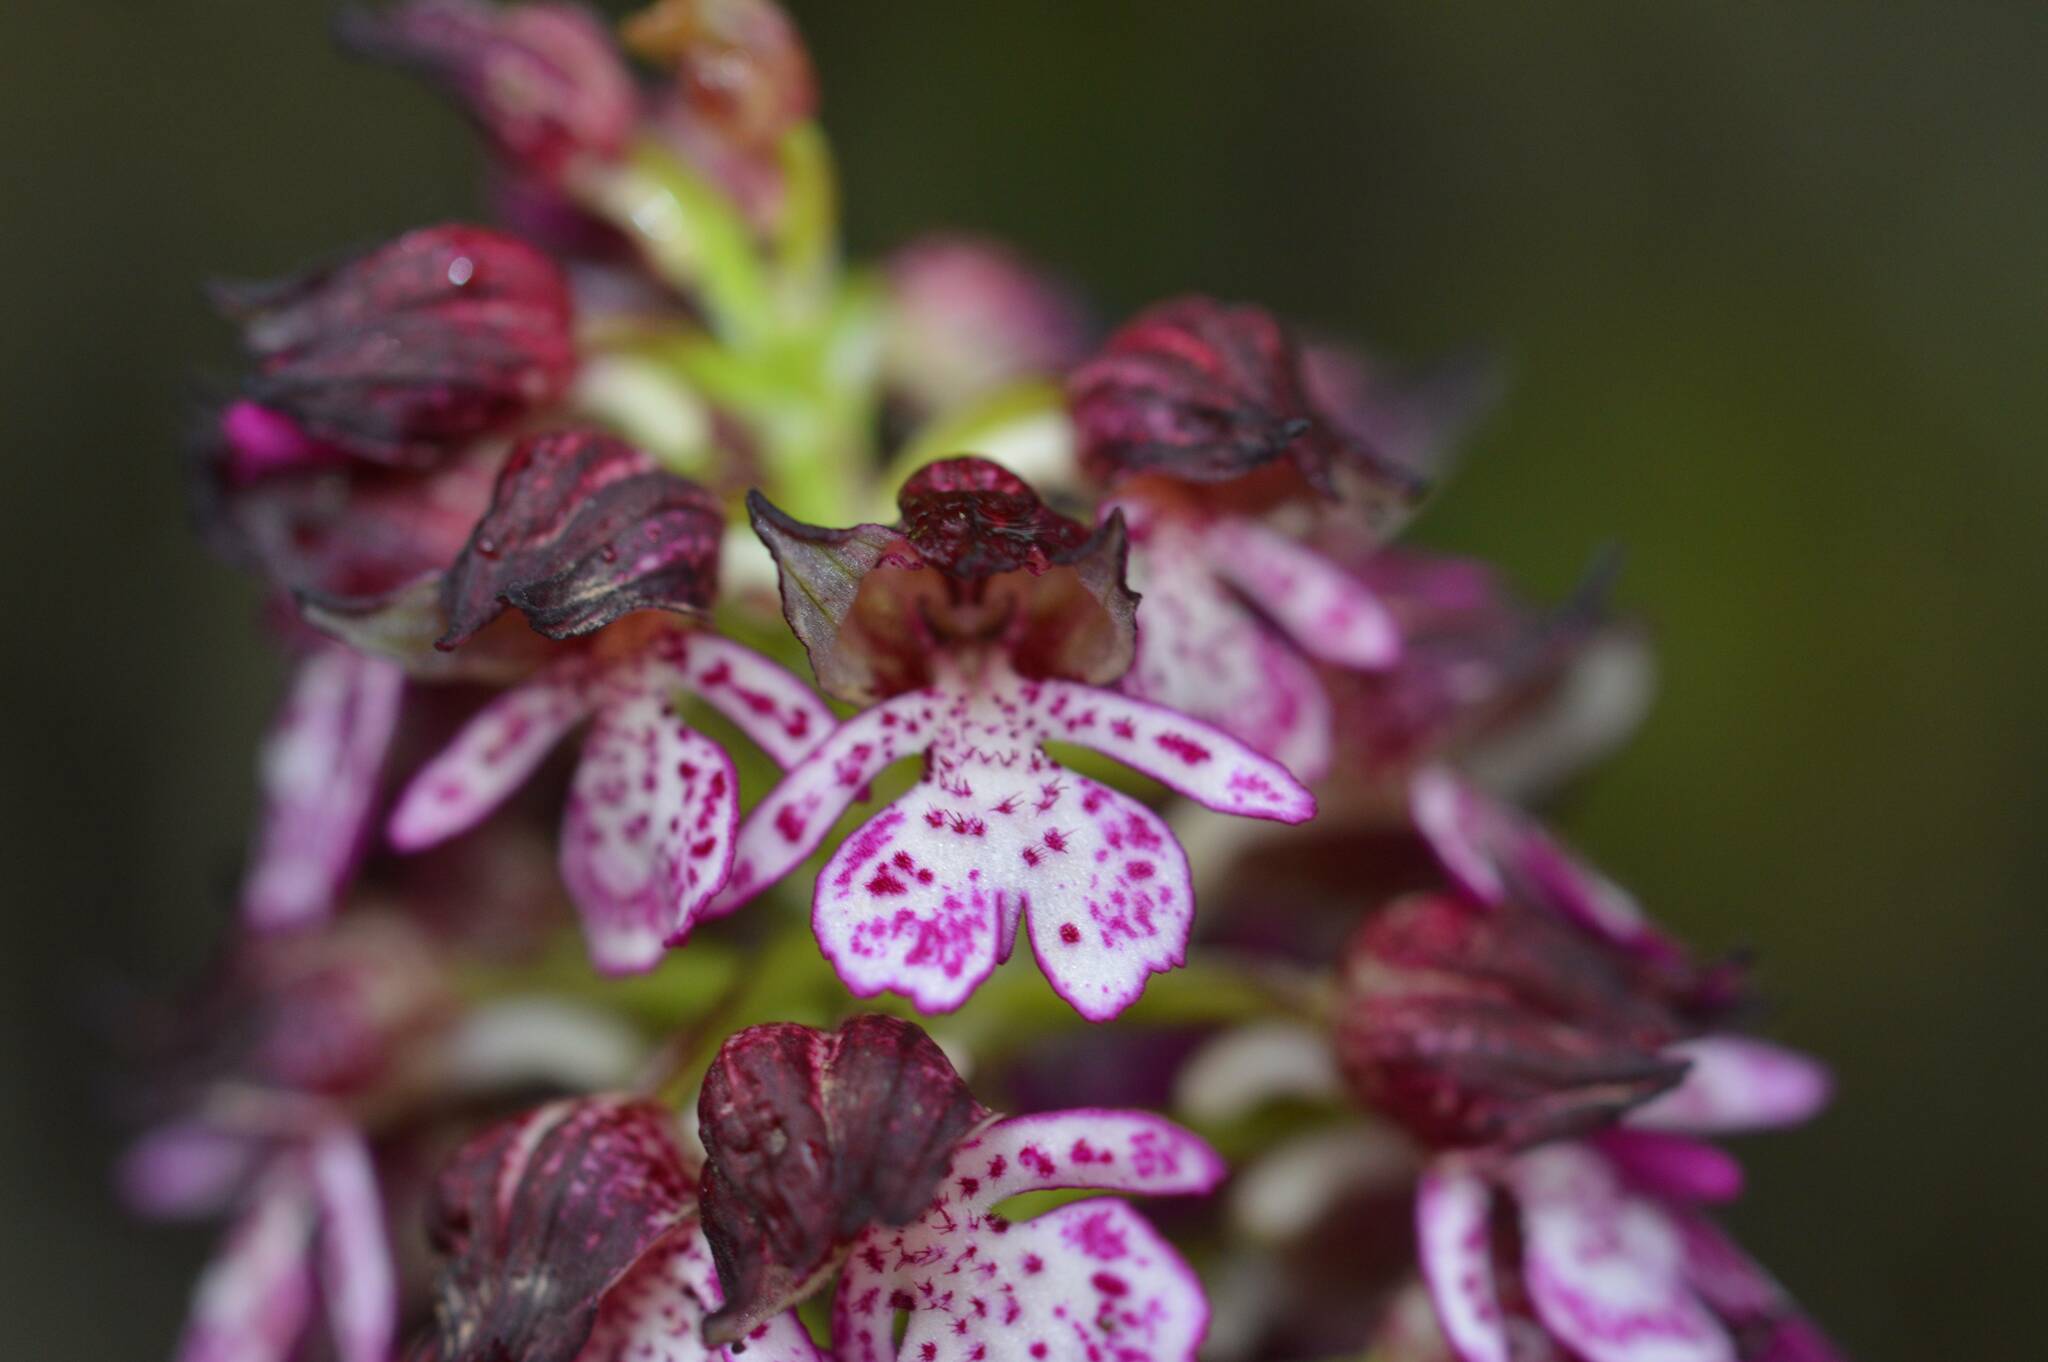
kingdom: Plantae
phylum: Tracheophyta
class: Liliopsida
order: Asparagales
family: Orchidaceae
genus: Orchis
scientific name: Orchis purpurea
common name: Lady orchid
